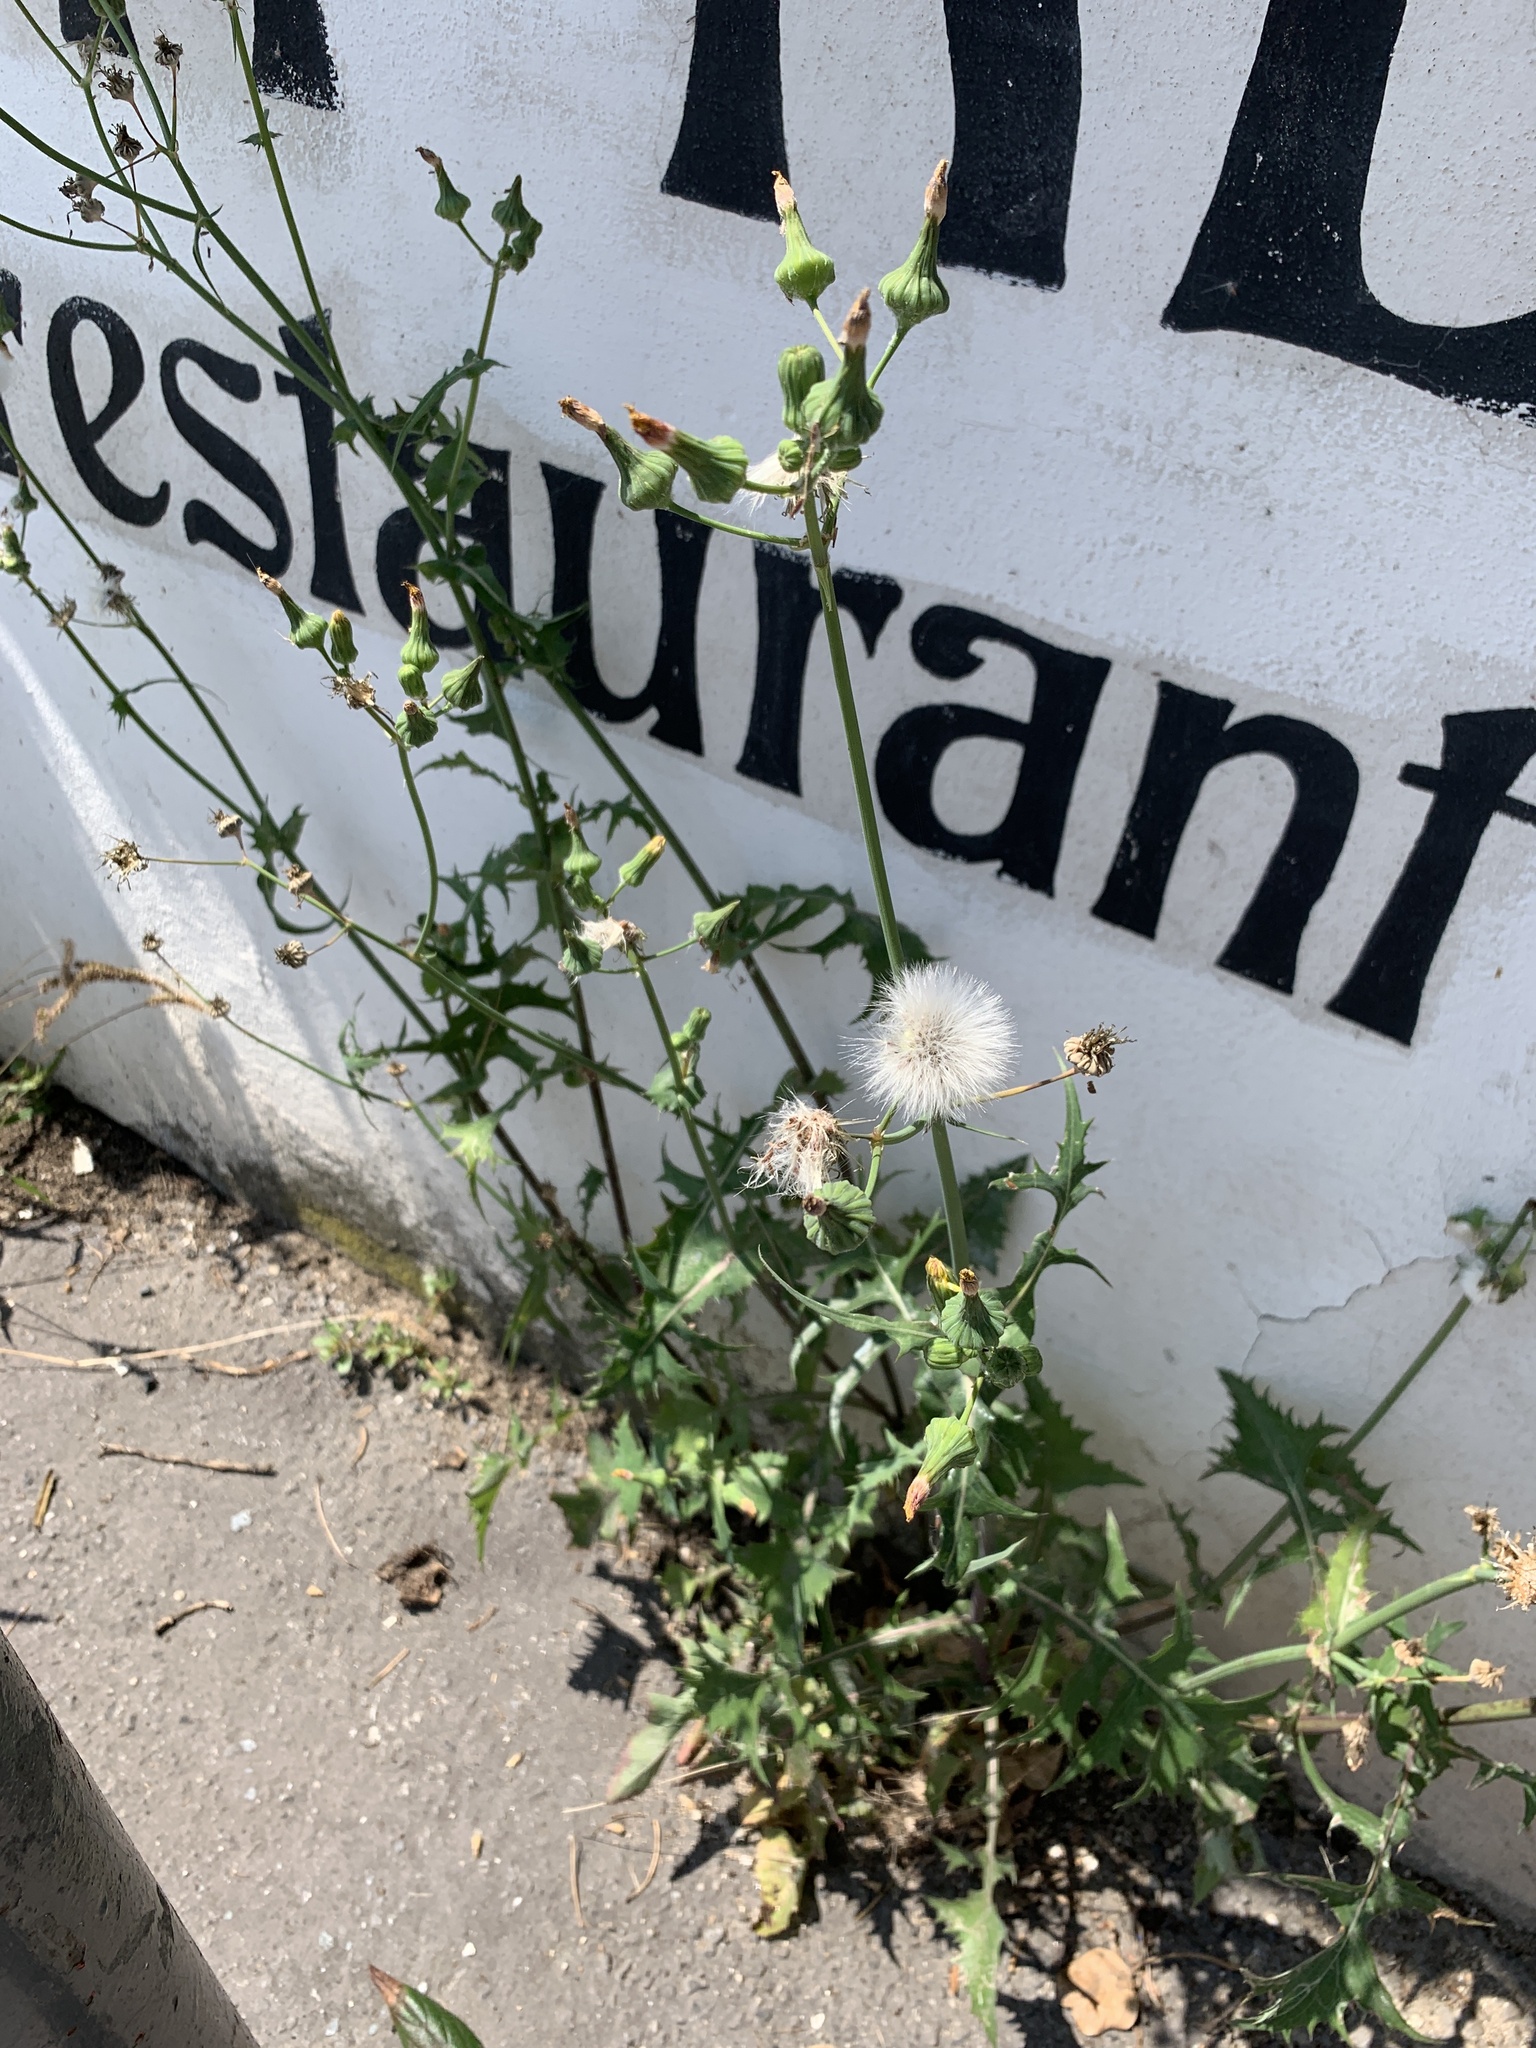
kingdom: Plantae
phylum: Tracheophyta
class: Magnoliopsida
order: Asterales
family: Asteraceae
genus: Sonchus
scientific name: Sonchus oleraceus
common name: Common sowthistle
